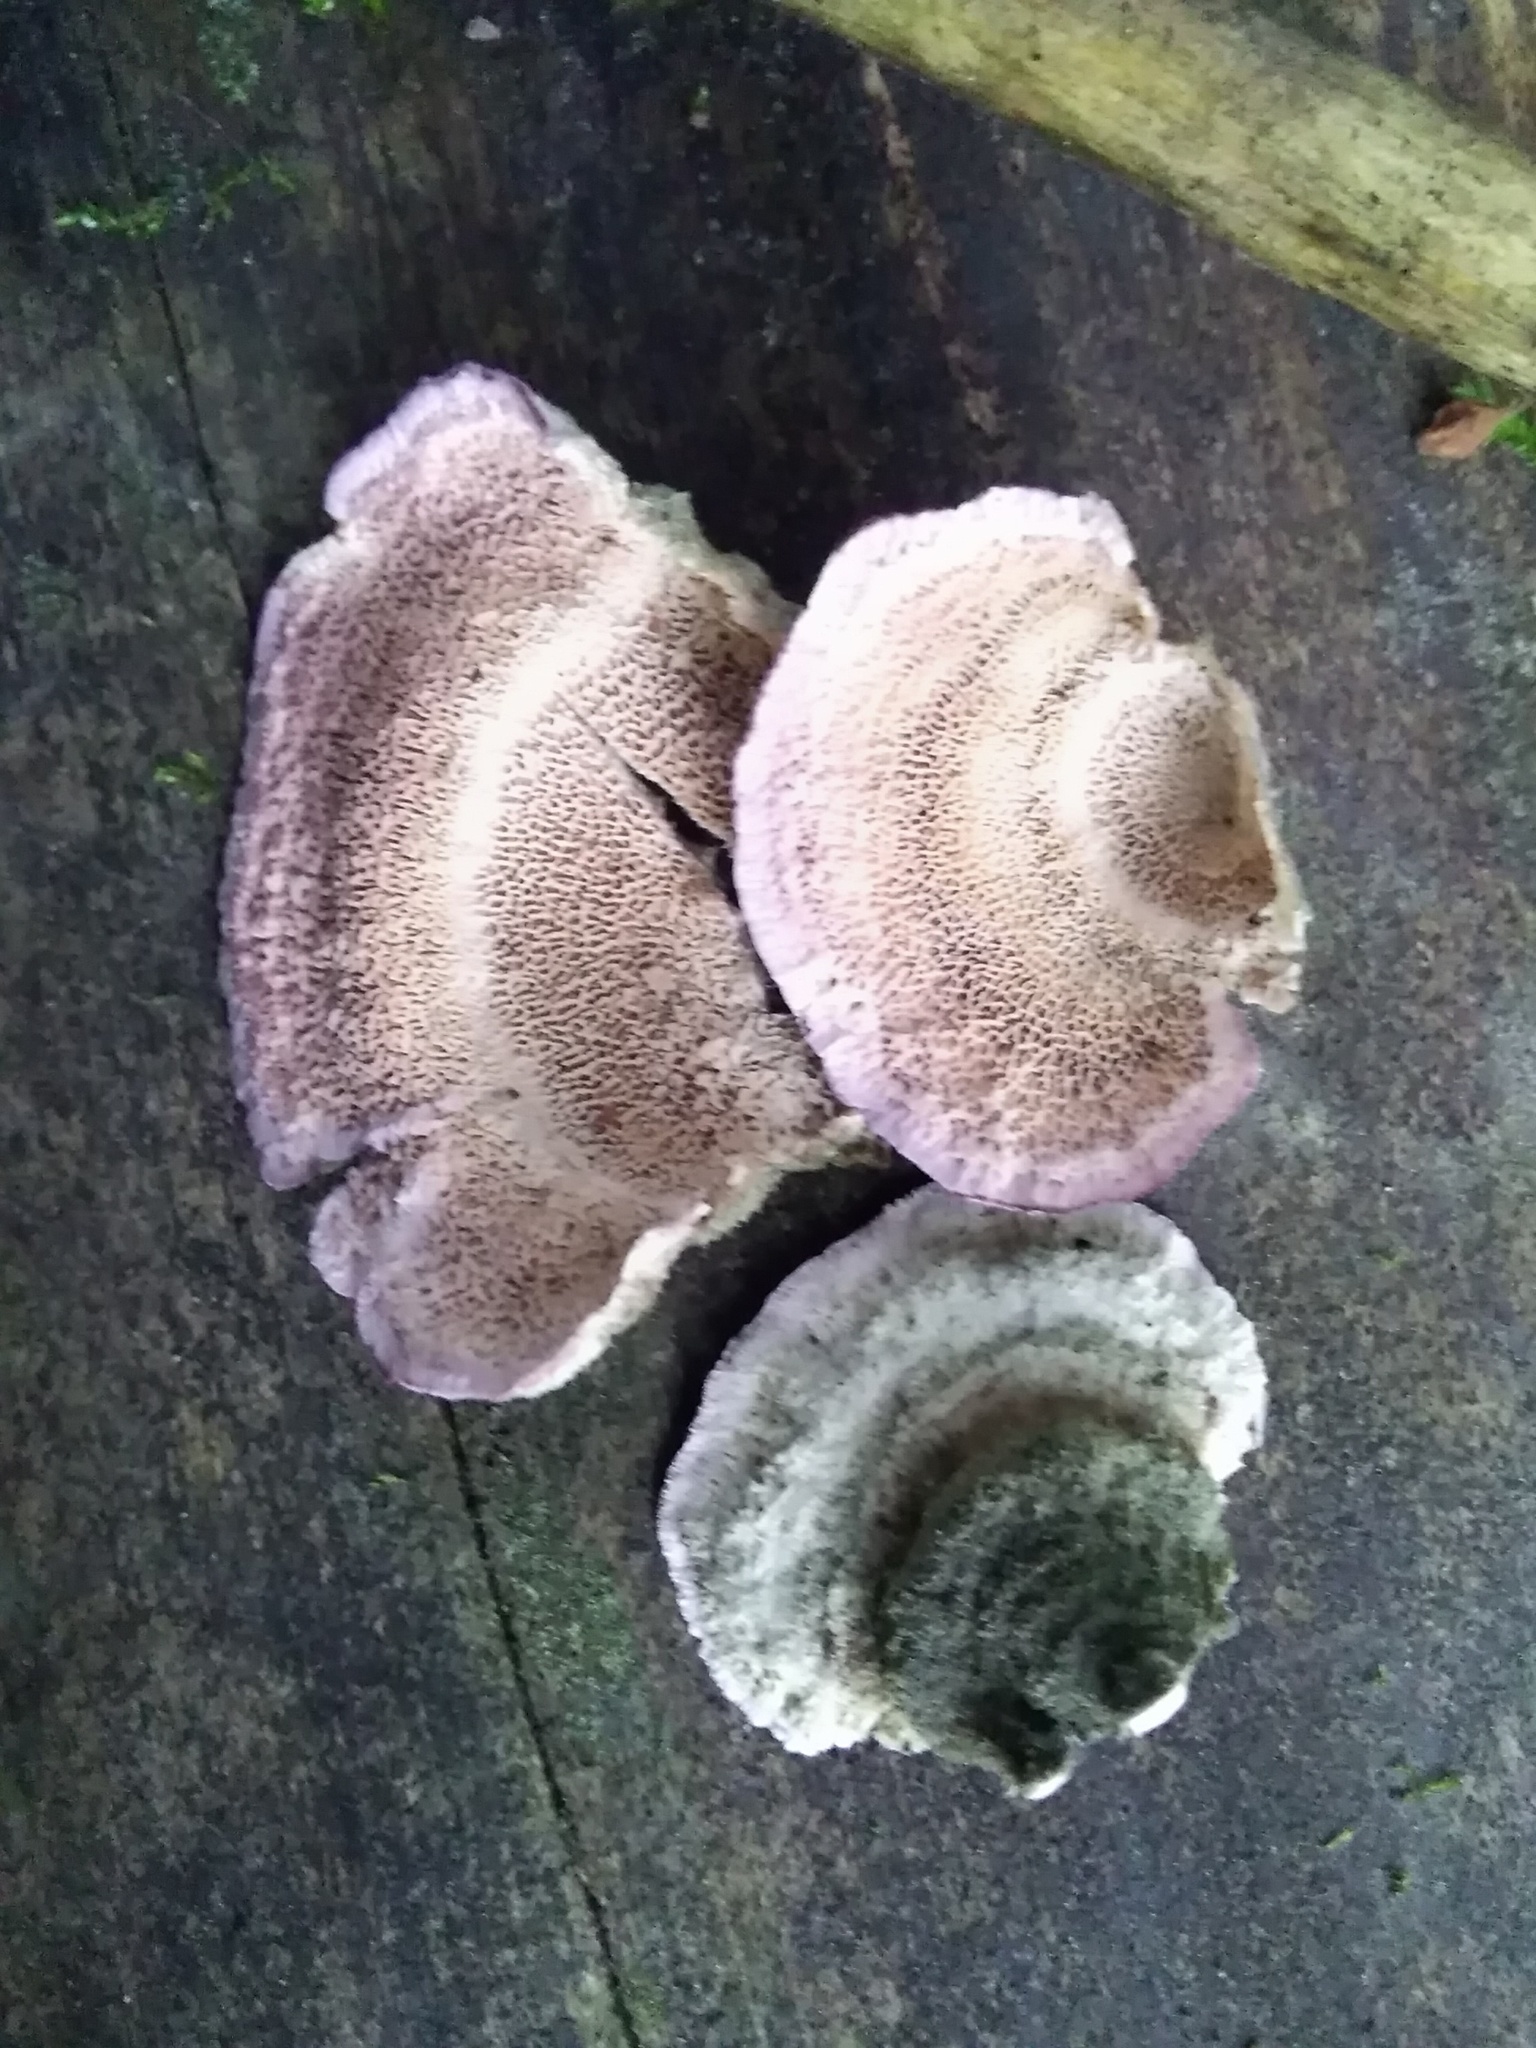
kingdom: Fungi
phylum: Basidiomycota
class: Agaricomycetes
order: Hymenochaetales
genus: Trichaptum
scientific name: Trichaptum biforme
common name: Violet-toothed polypore
